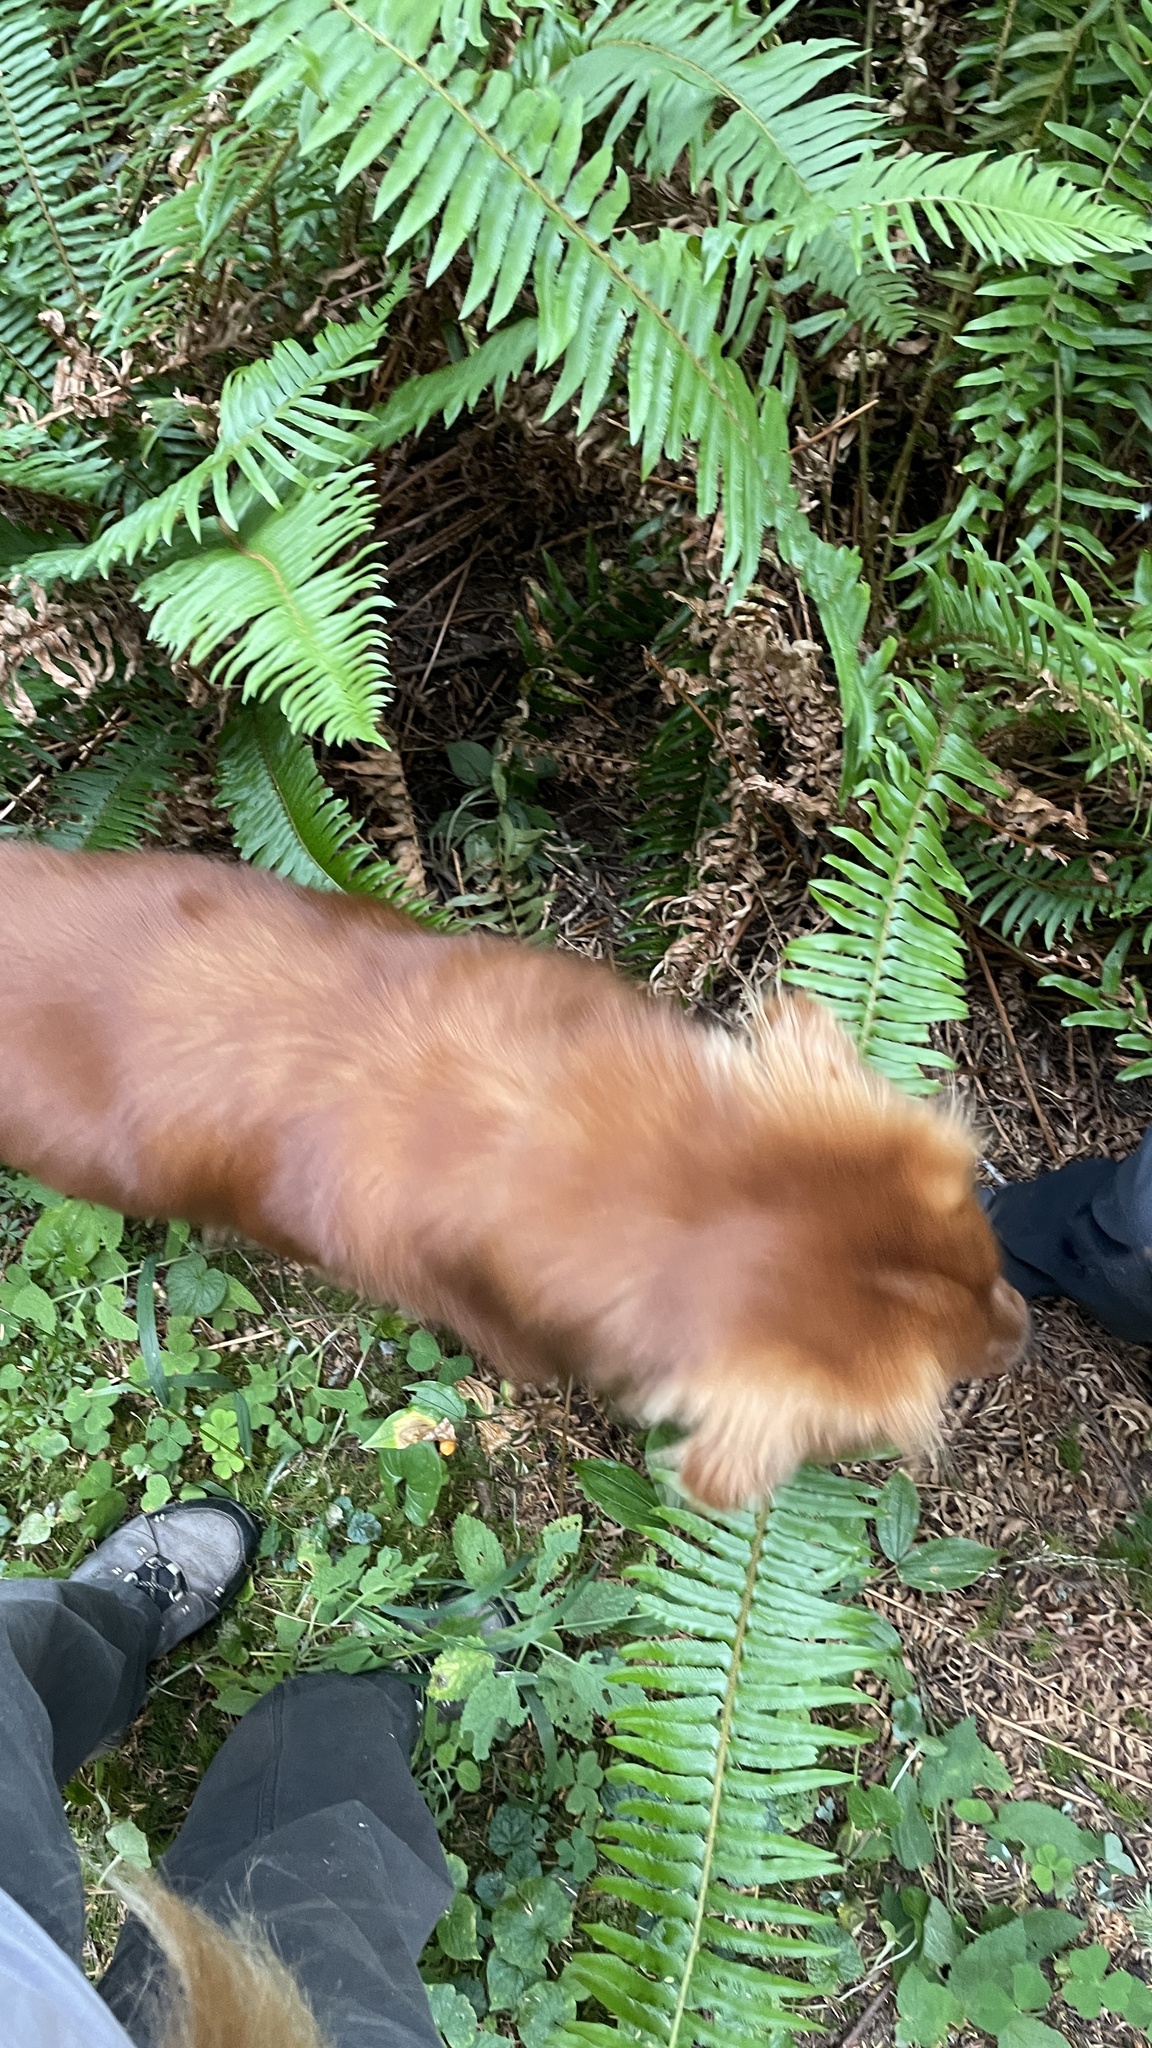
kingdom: Fungi
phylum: Ascomycota
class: Pezizomycetes
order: Pezizales
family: Morchellaceae
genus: Leucangium
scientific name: Leucangium carthusianum
